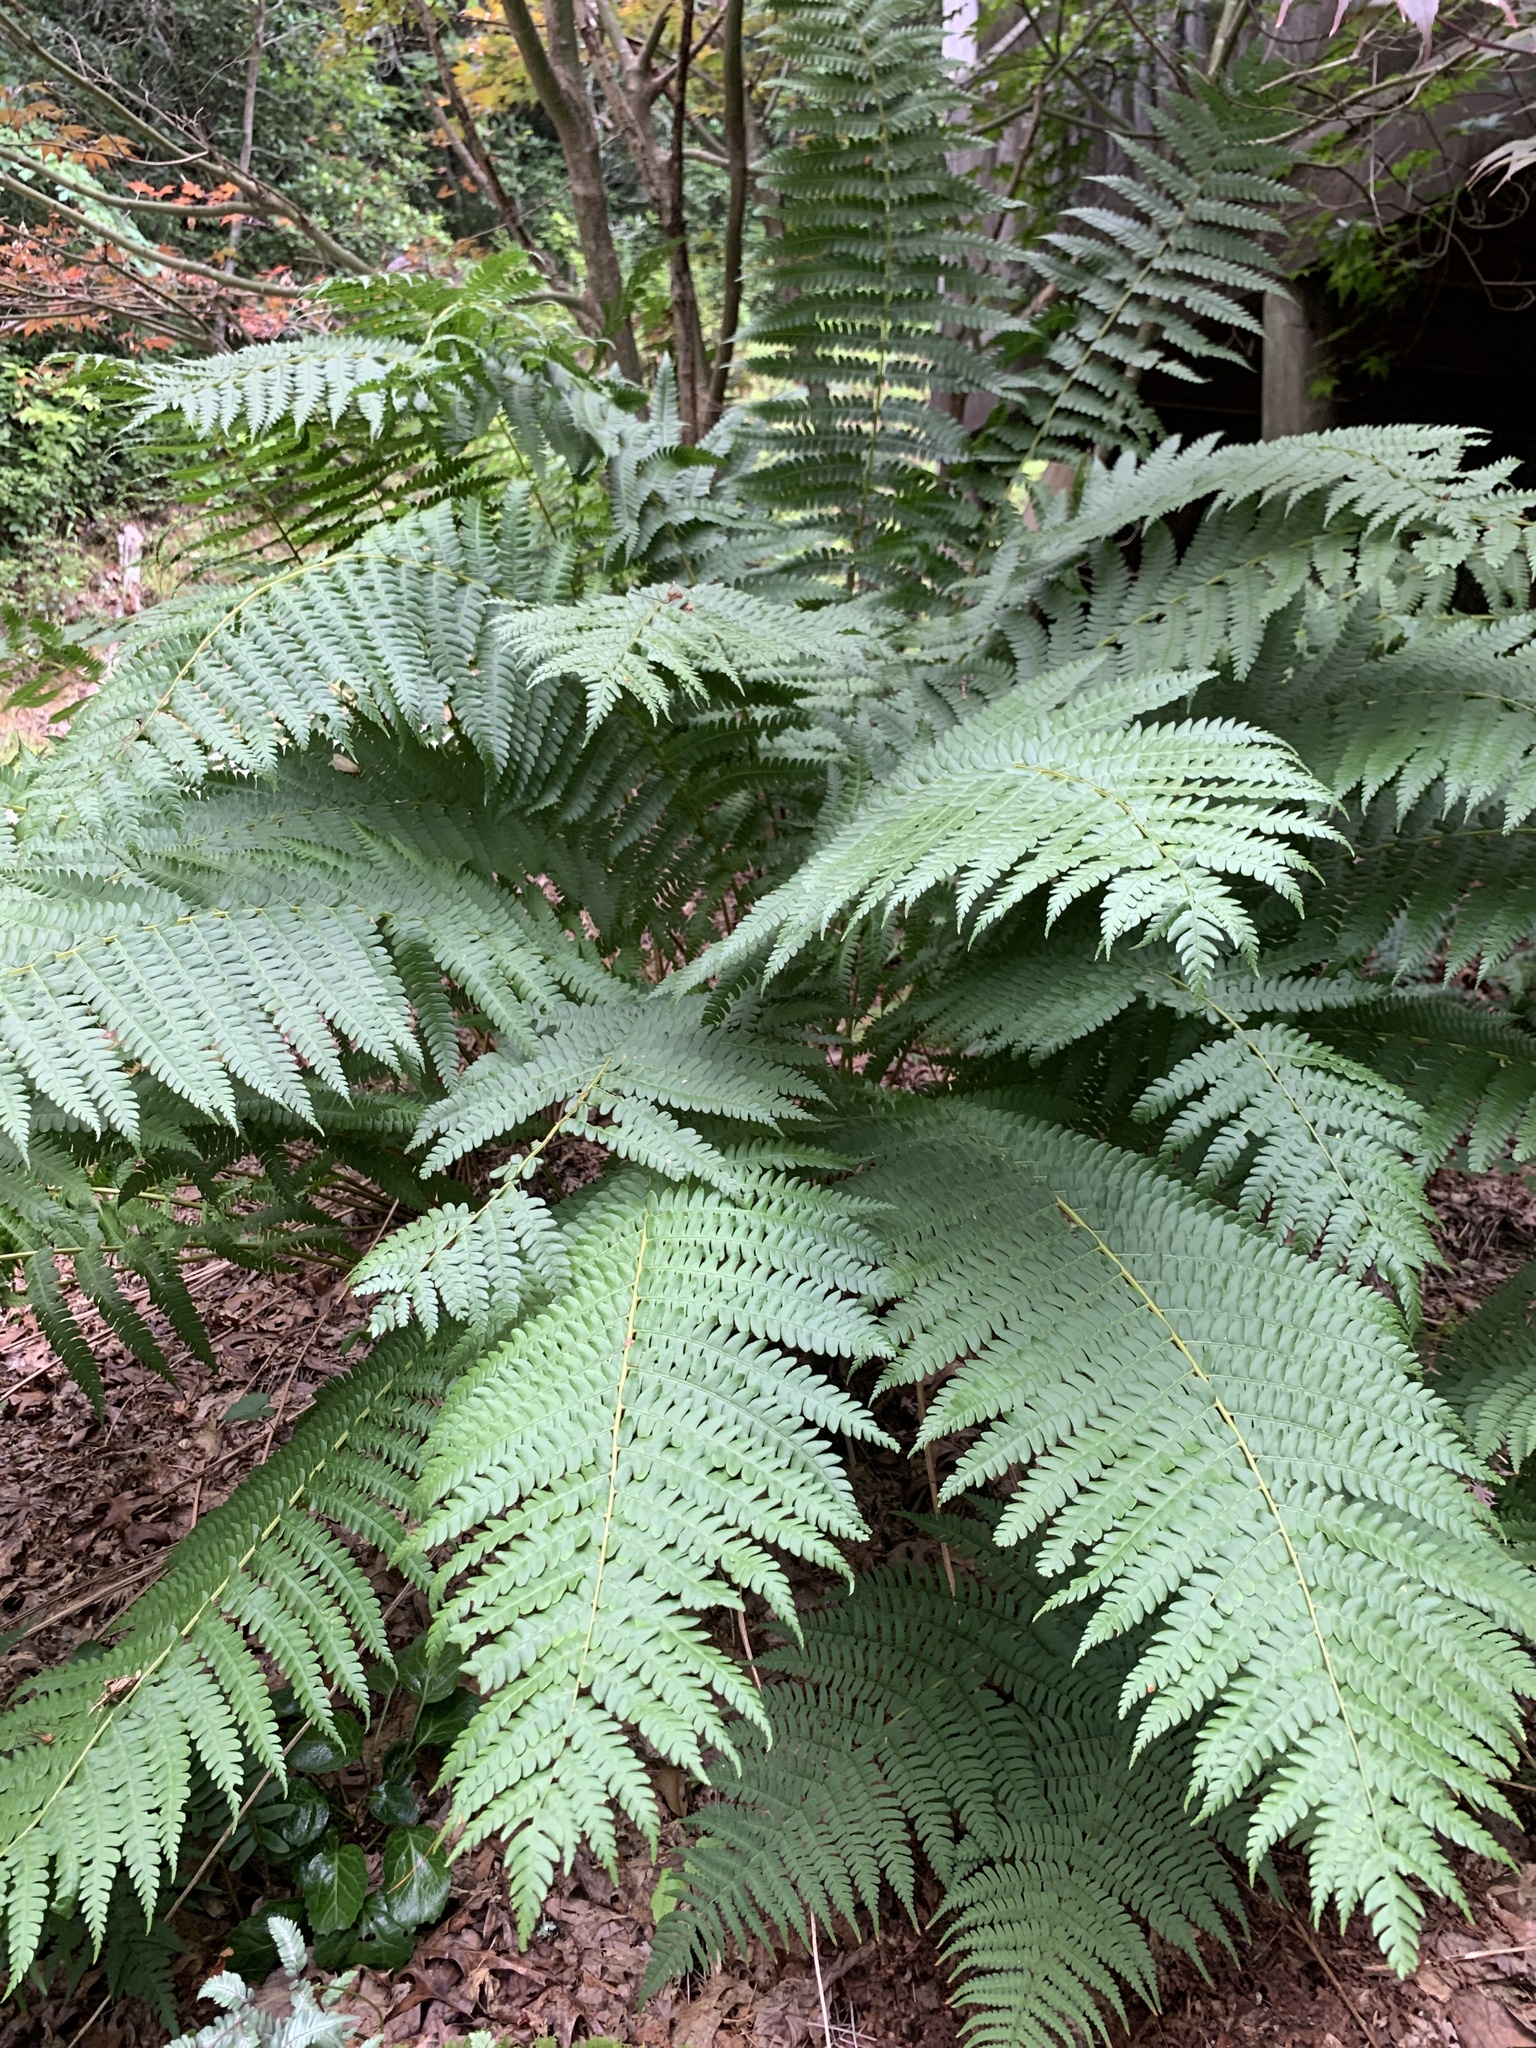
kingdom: Plantae
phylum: Tracheophyta
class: Polypodiopsida
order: Osmundales
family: Osmundaceae
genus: Osmundastrum
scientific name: Osmundastrum cinnamomeum
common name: Cinnamon fern
